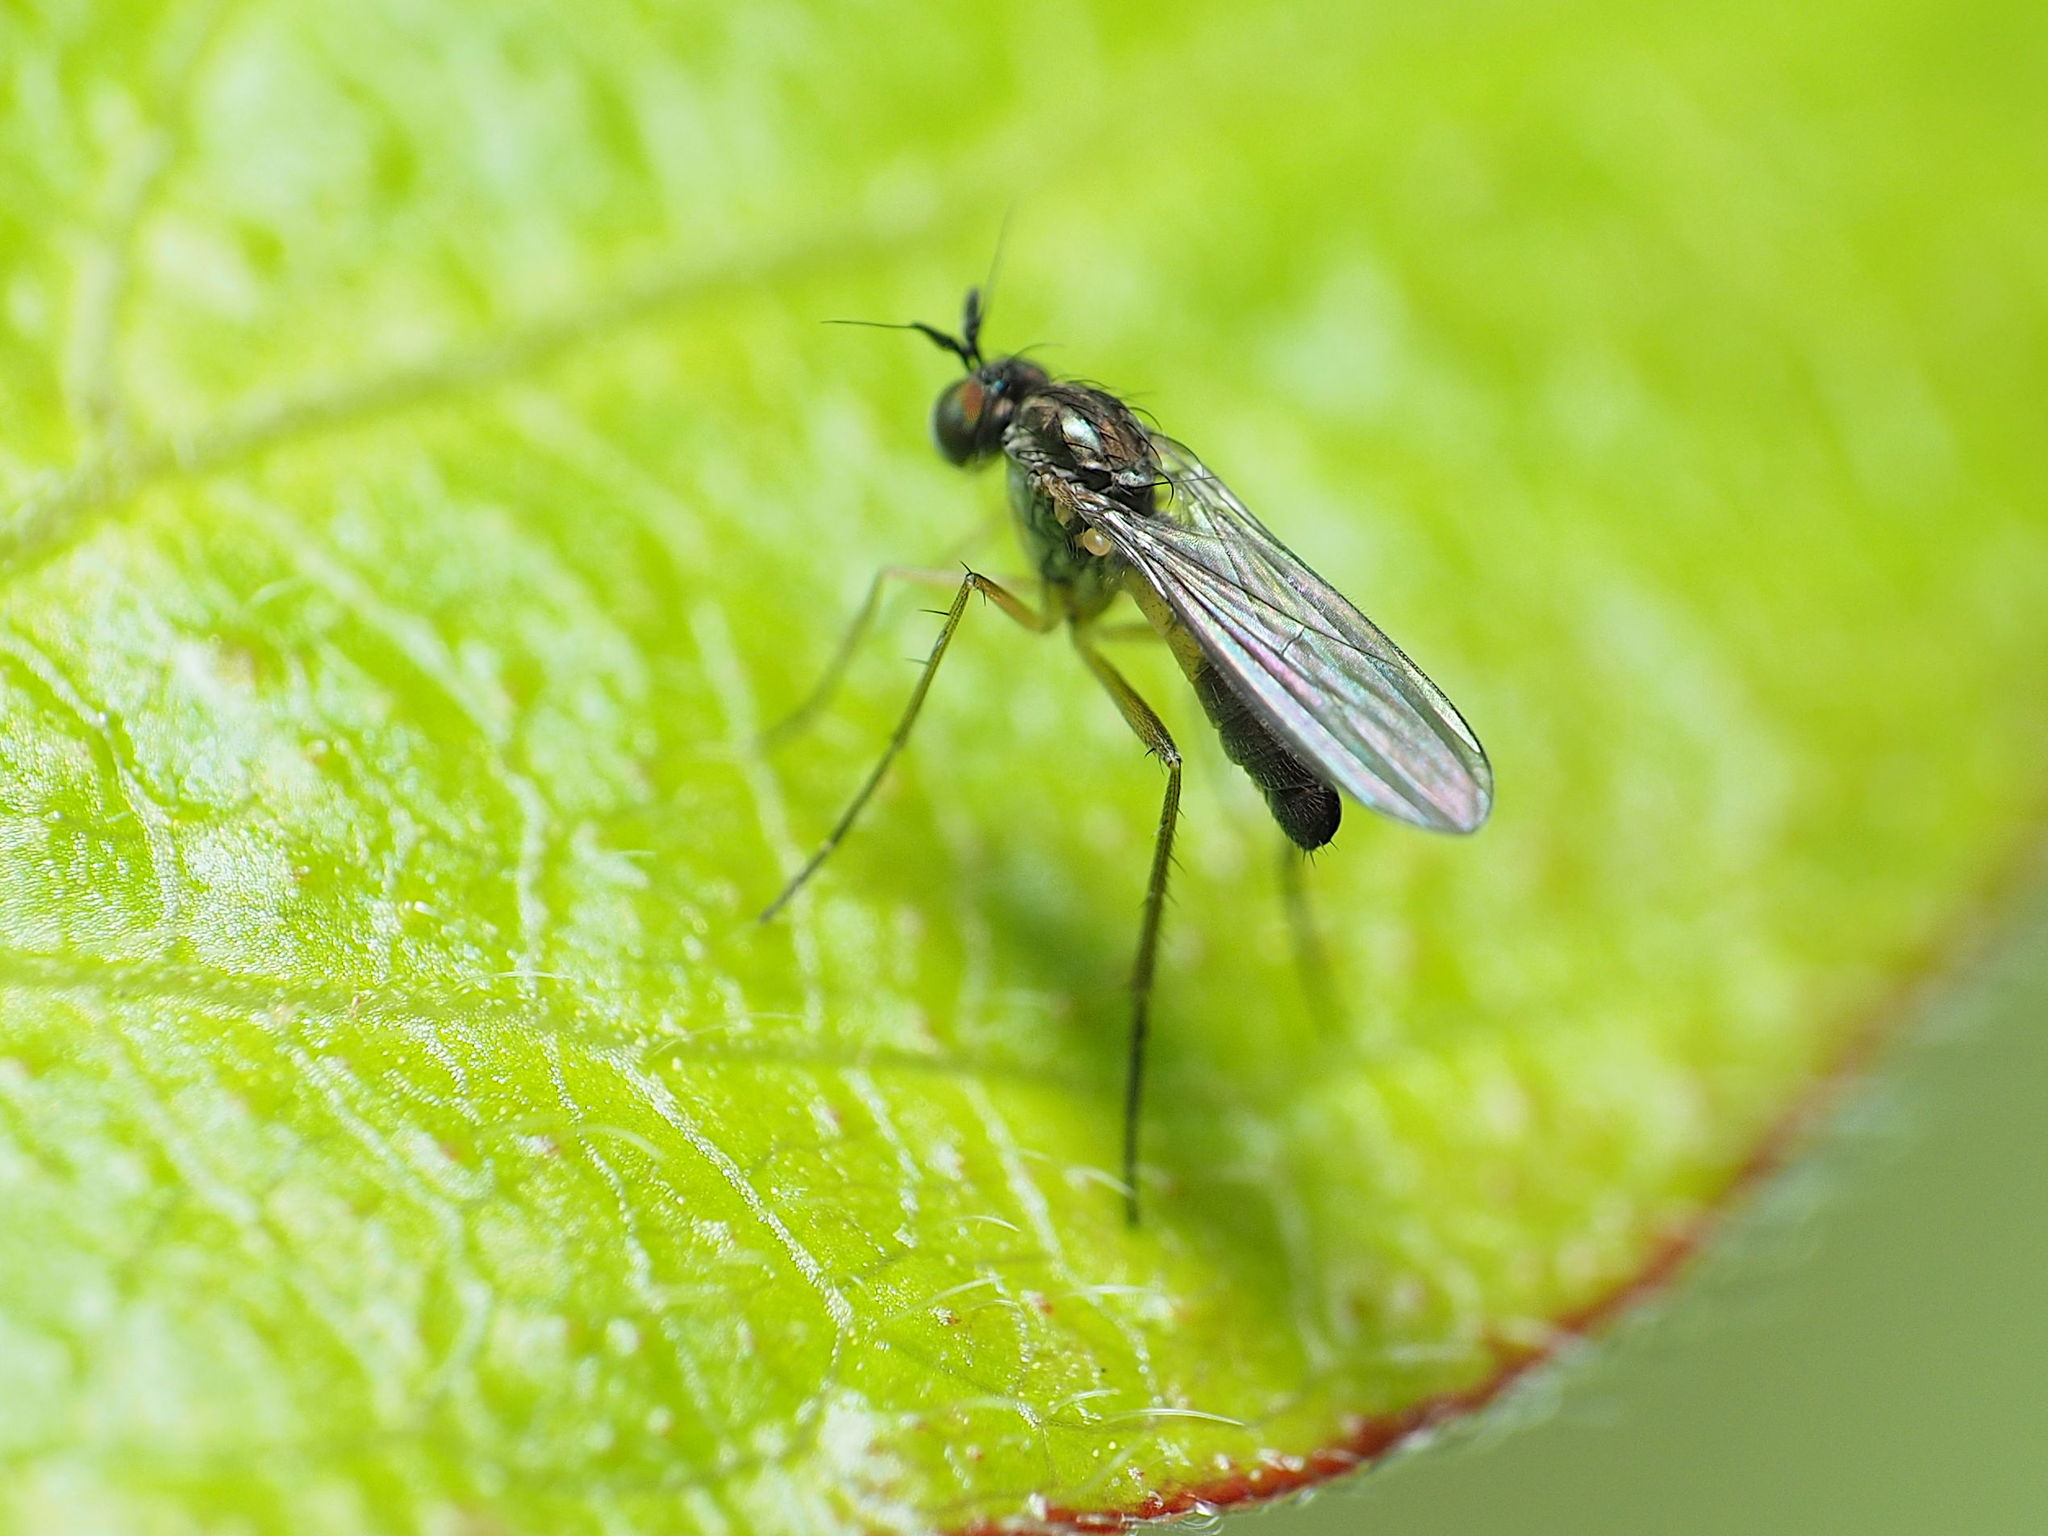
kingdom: Animalia
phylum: Arthropoda
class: Insecta
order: Diptera
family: Dolichopodidae
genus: Calyxochaetus
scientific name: Calyxochaetus
